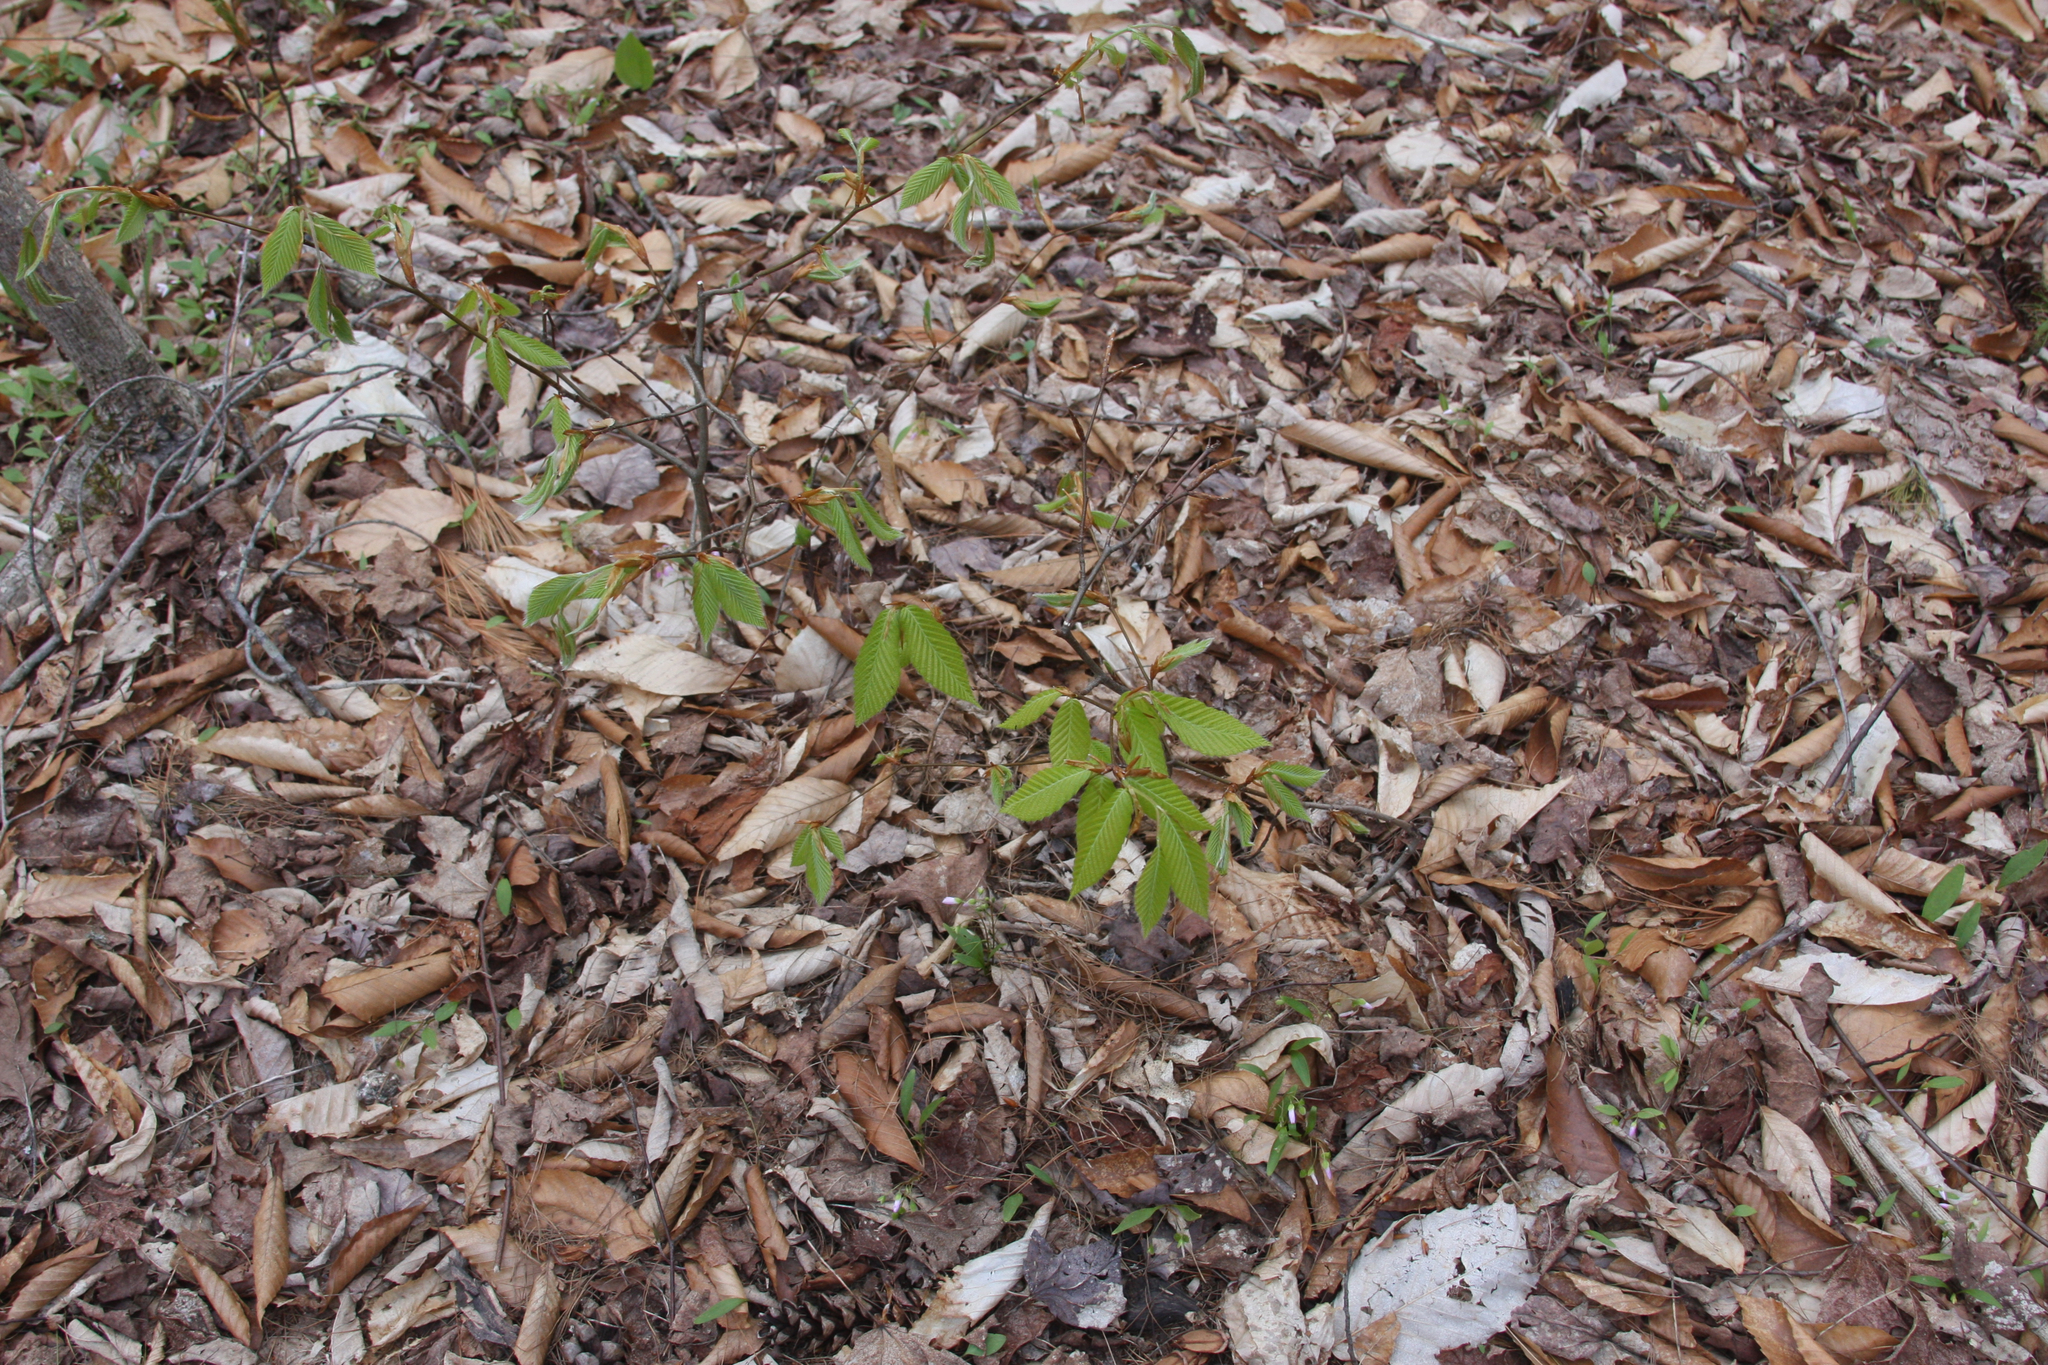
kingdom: Plantae
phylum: Tracheophyta
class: Magnoliopsida
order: Fagales
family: Fagaceae
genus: Fagus
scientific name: Fagus grandifolia
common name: American beech
